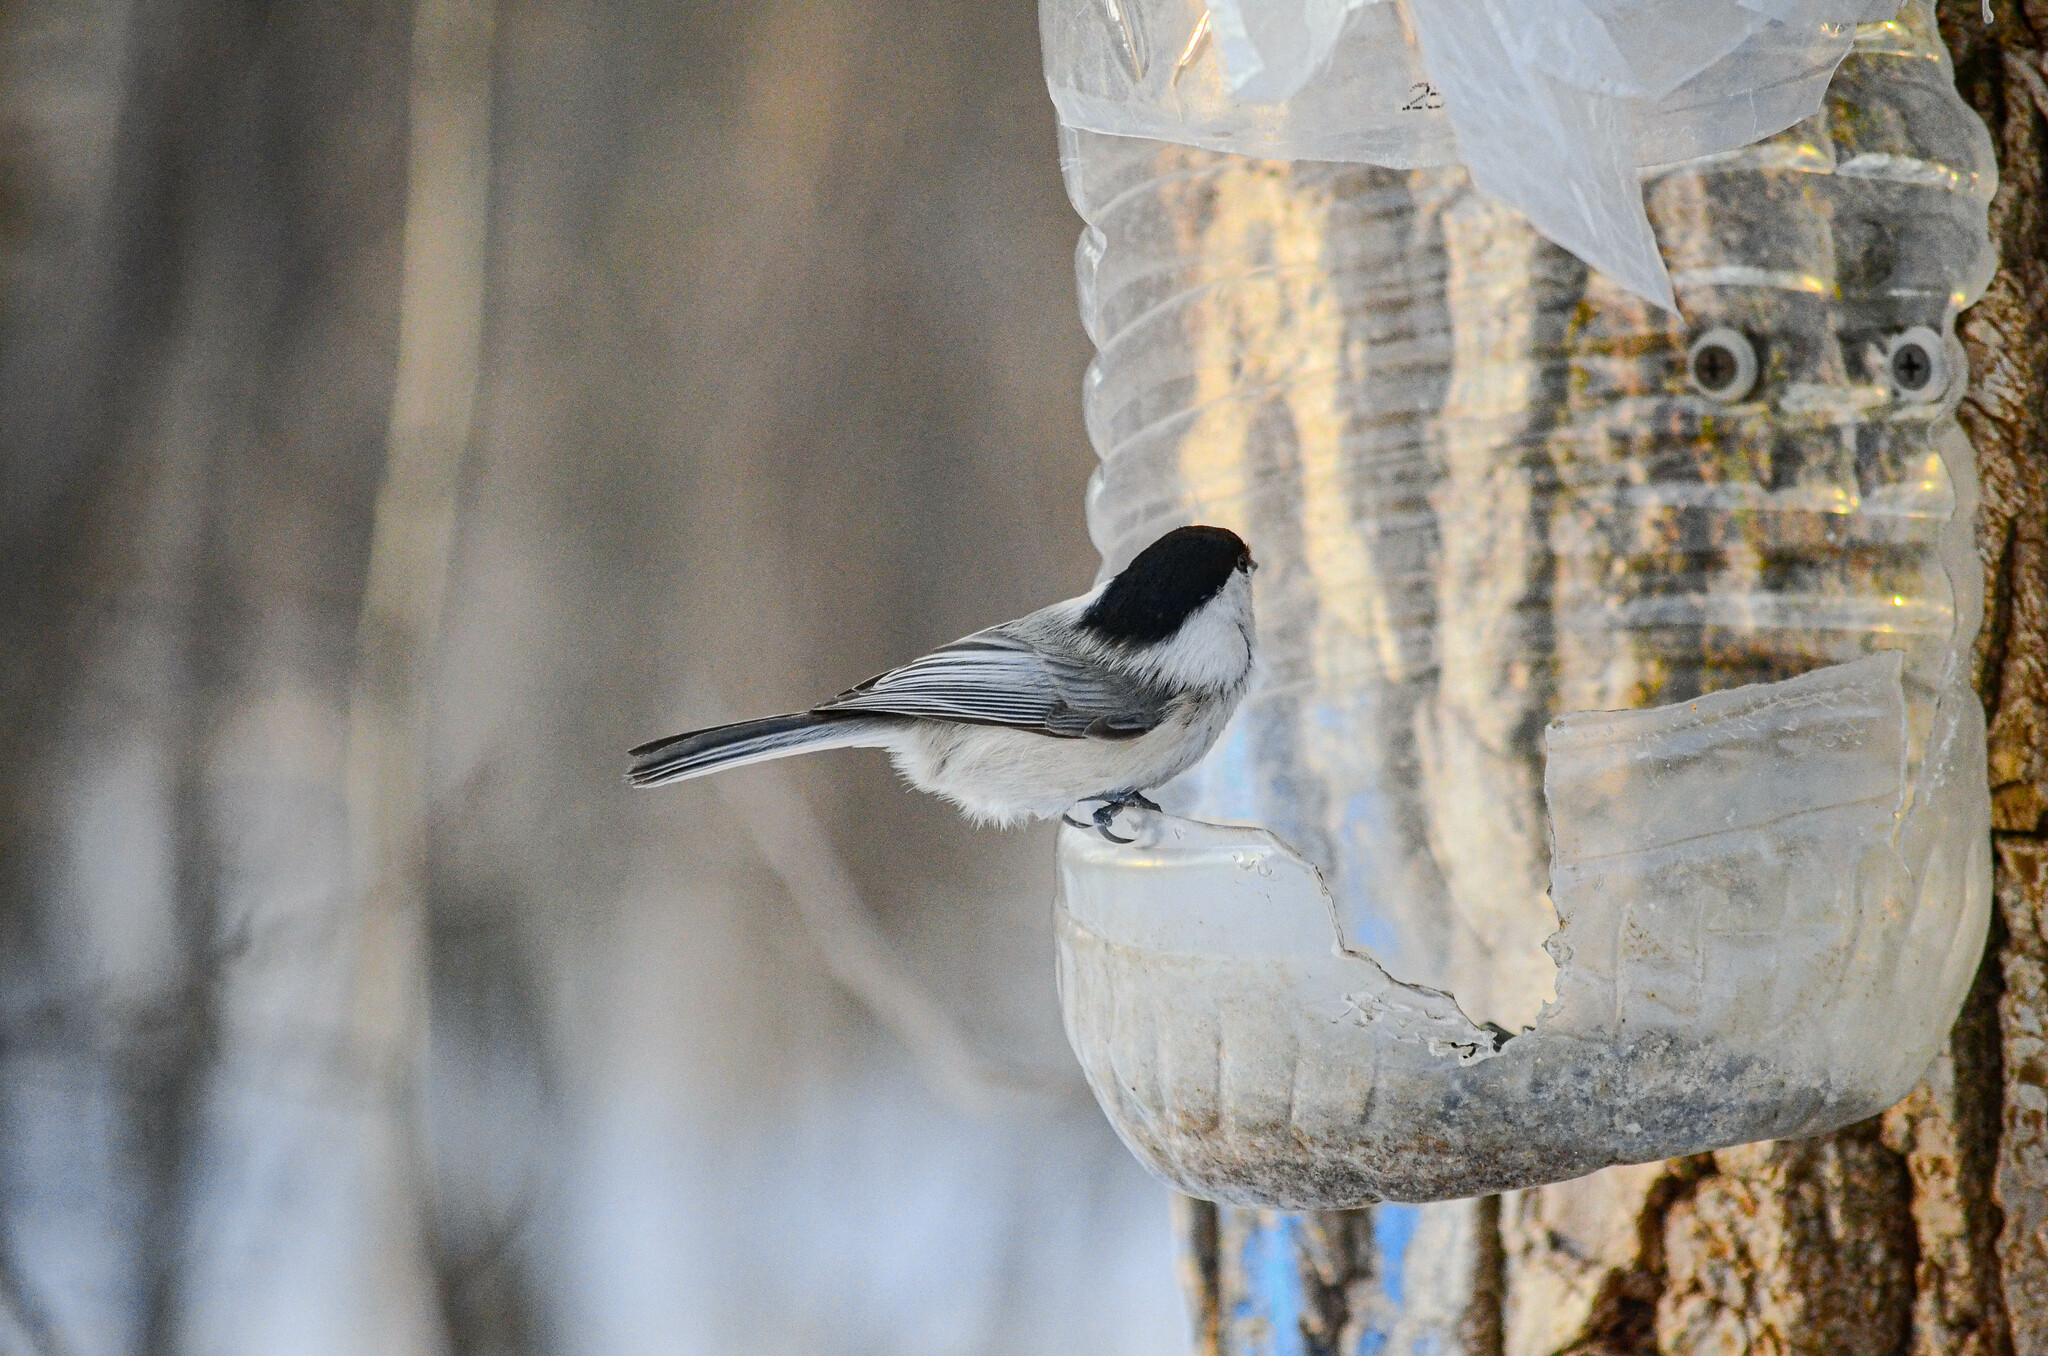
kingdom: Animalia
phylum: Chordata
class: Aves
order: Passeriformes
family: Paridae
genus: Poecile
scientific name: Poecile montanus
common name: Willow tit
